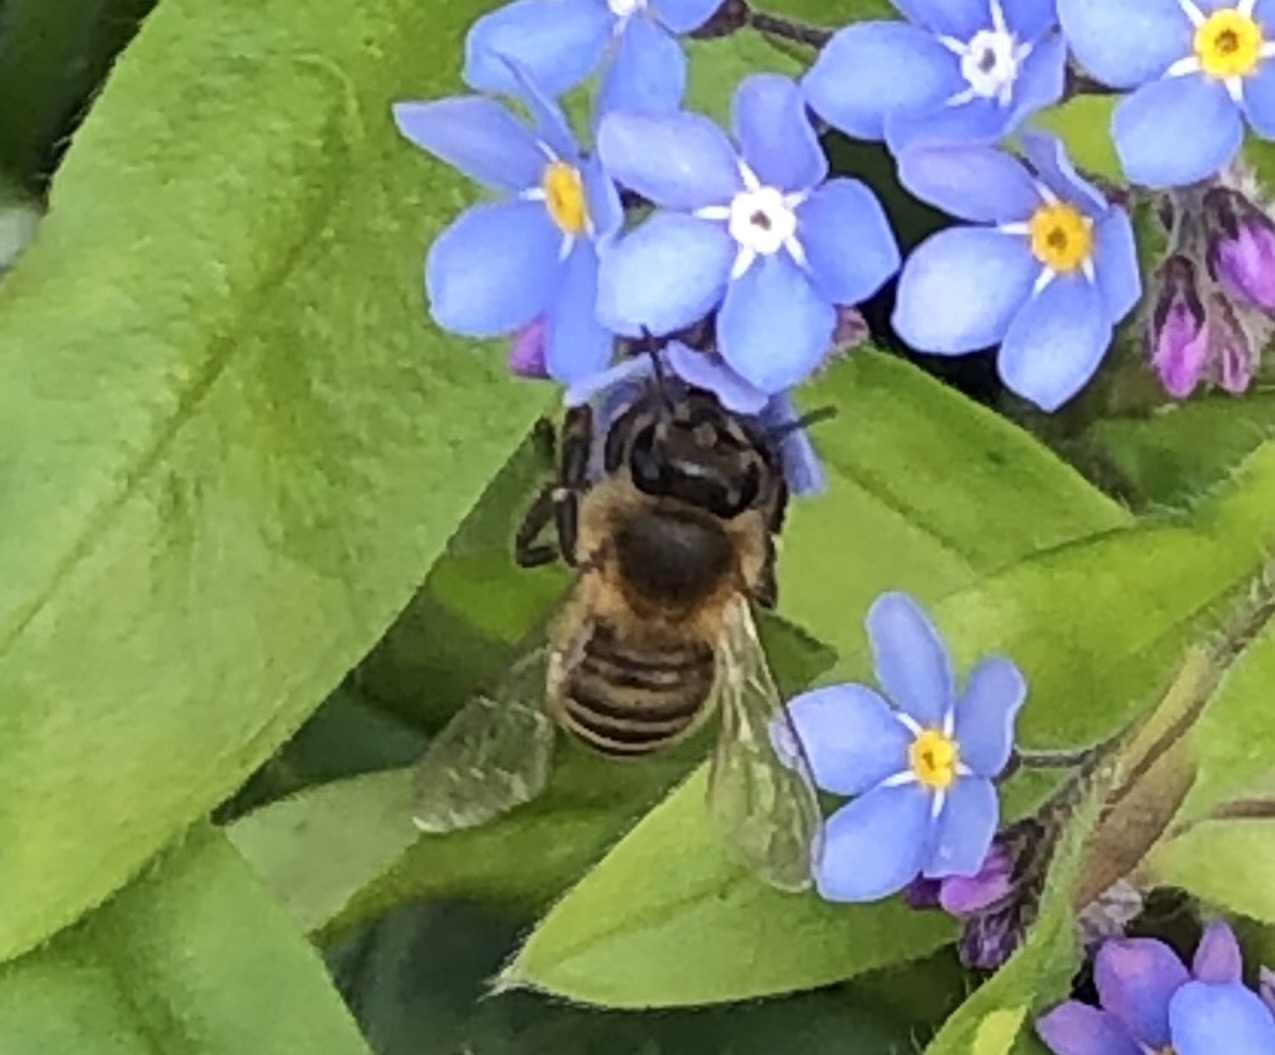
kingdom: Animalia
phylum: Arthropoda
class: Insecta
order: Hymenoptera
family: Apidae
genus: Apis
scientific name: Apis mellifera
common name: Honey bee
